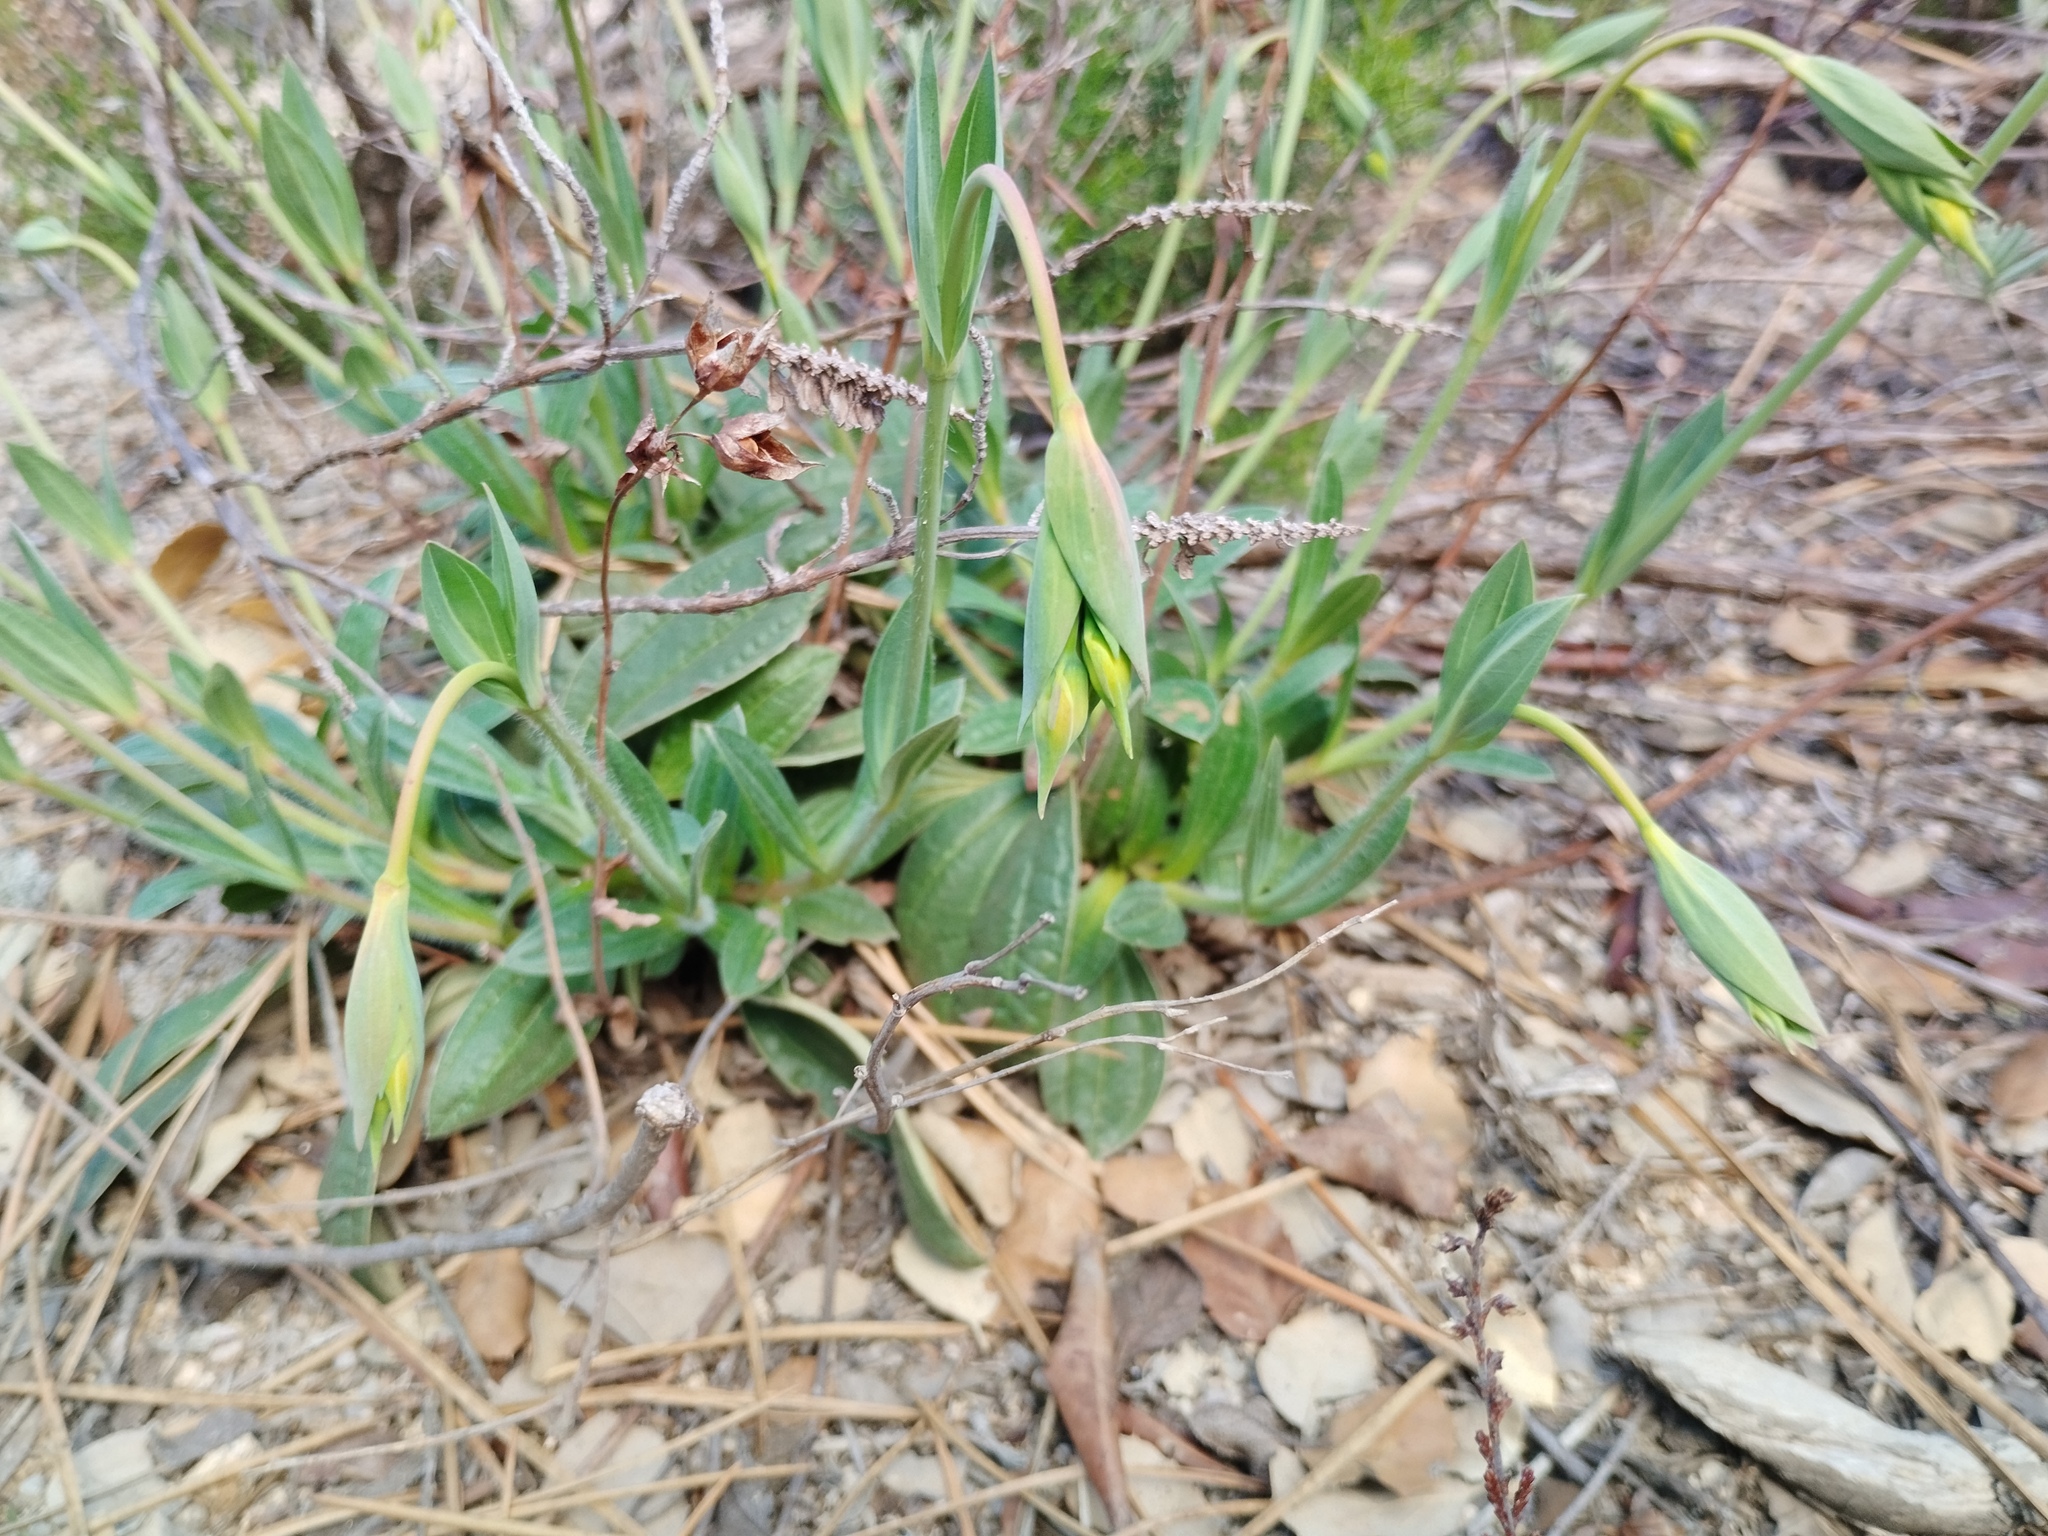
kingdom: Plantae
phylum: Tracheophyta
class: Magnoliopsida
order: Malvales
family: Cistaceae
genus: Tuberaria
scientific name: Tuberaria lignosa
